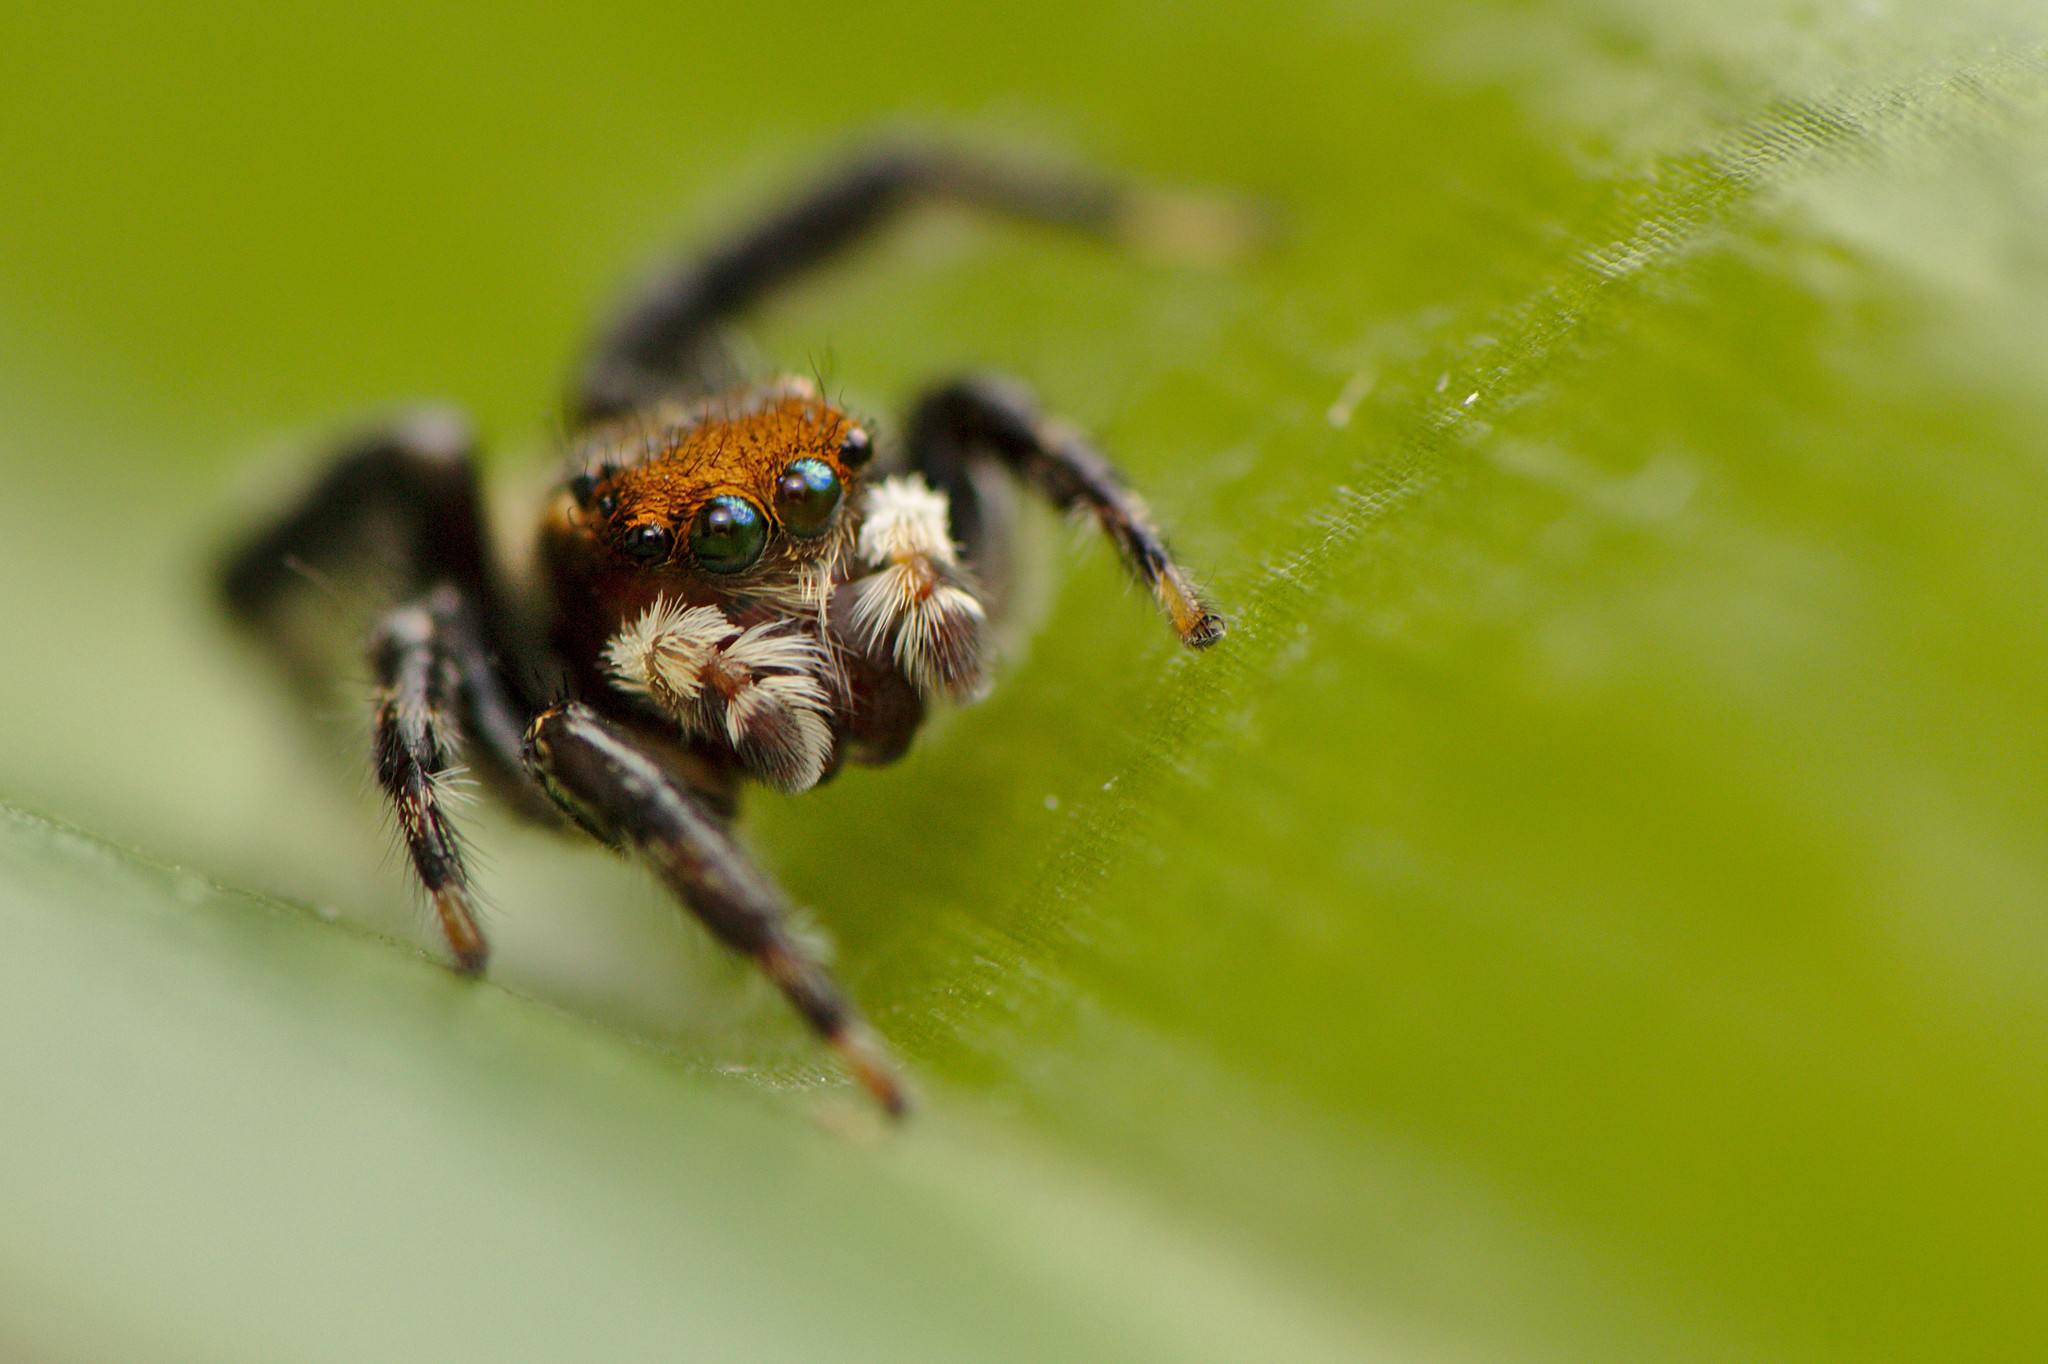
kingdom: Animalia
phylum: Arthropoda
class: Arachnida
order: Araneae
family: Salticidae
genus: Maratus
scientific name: Maratus griseus
